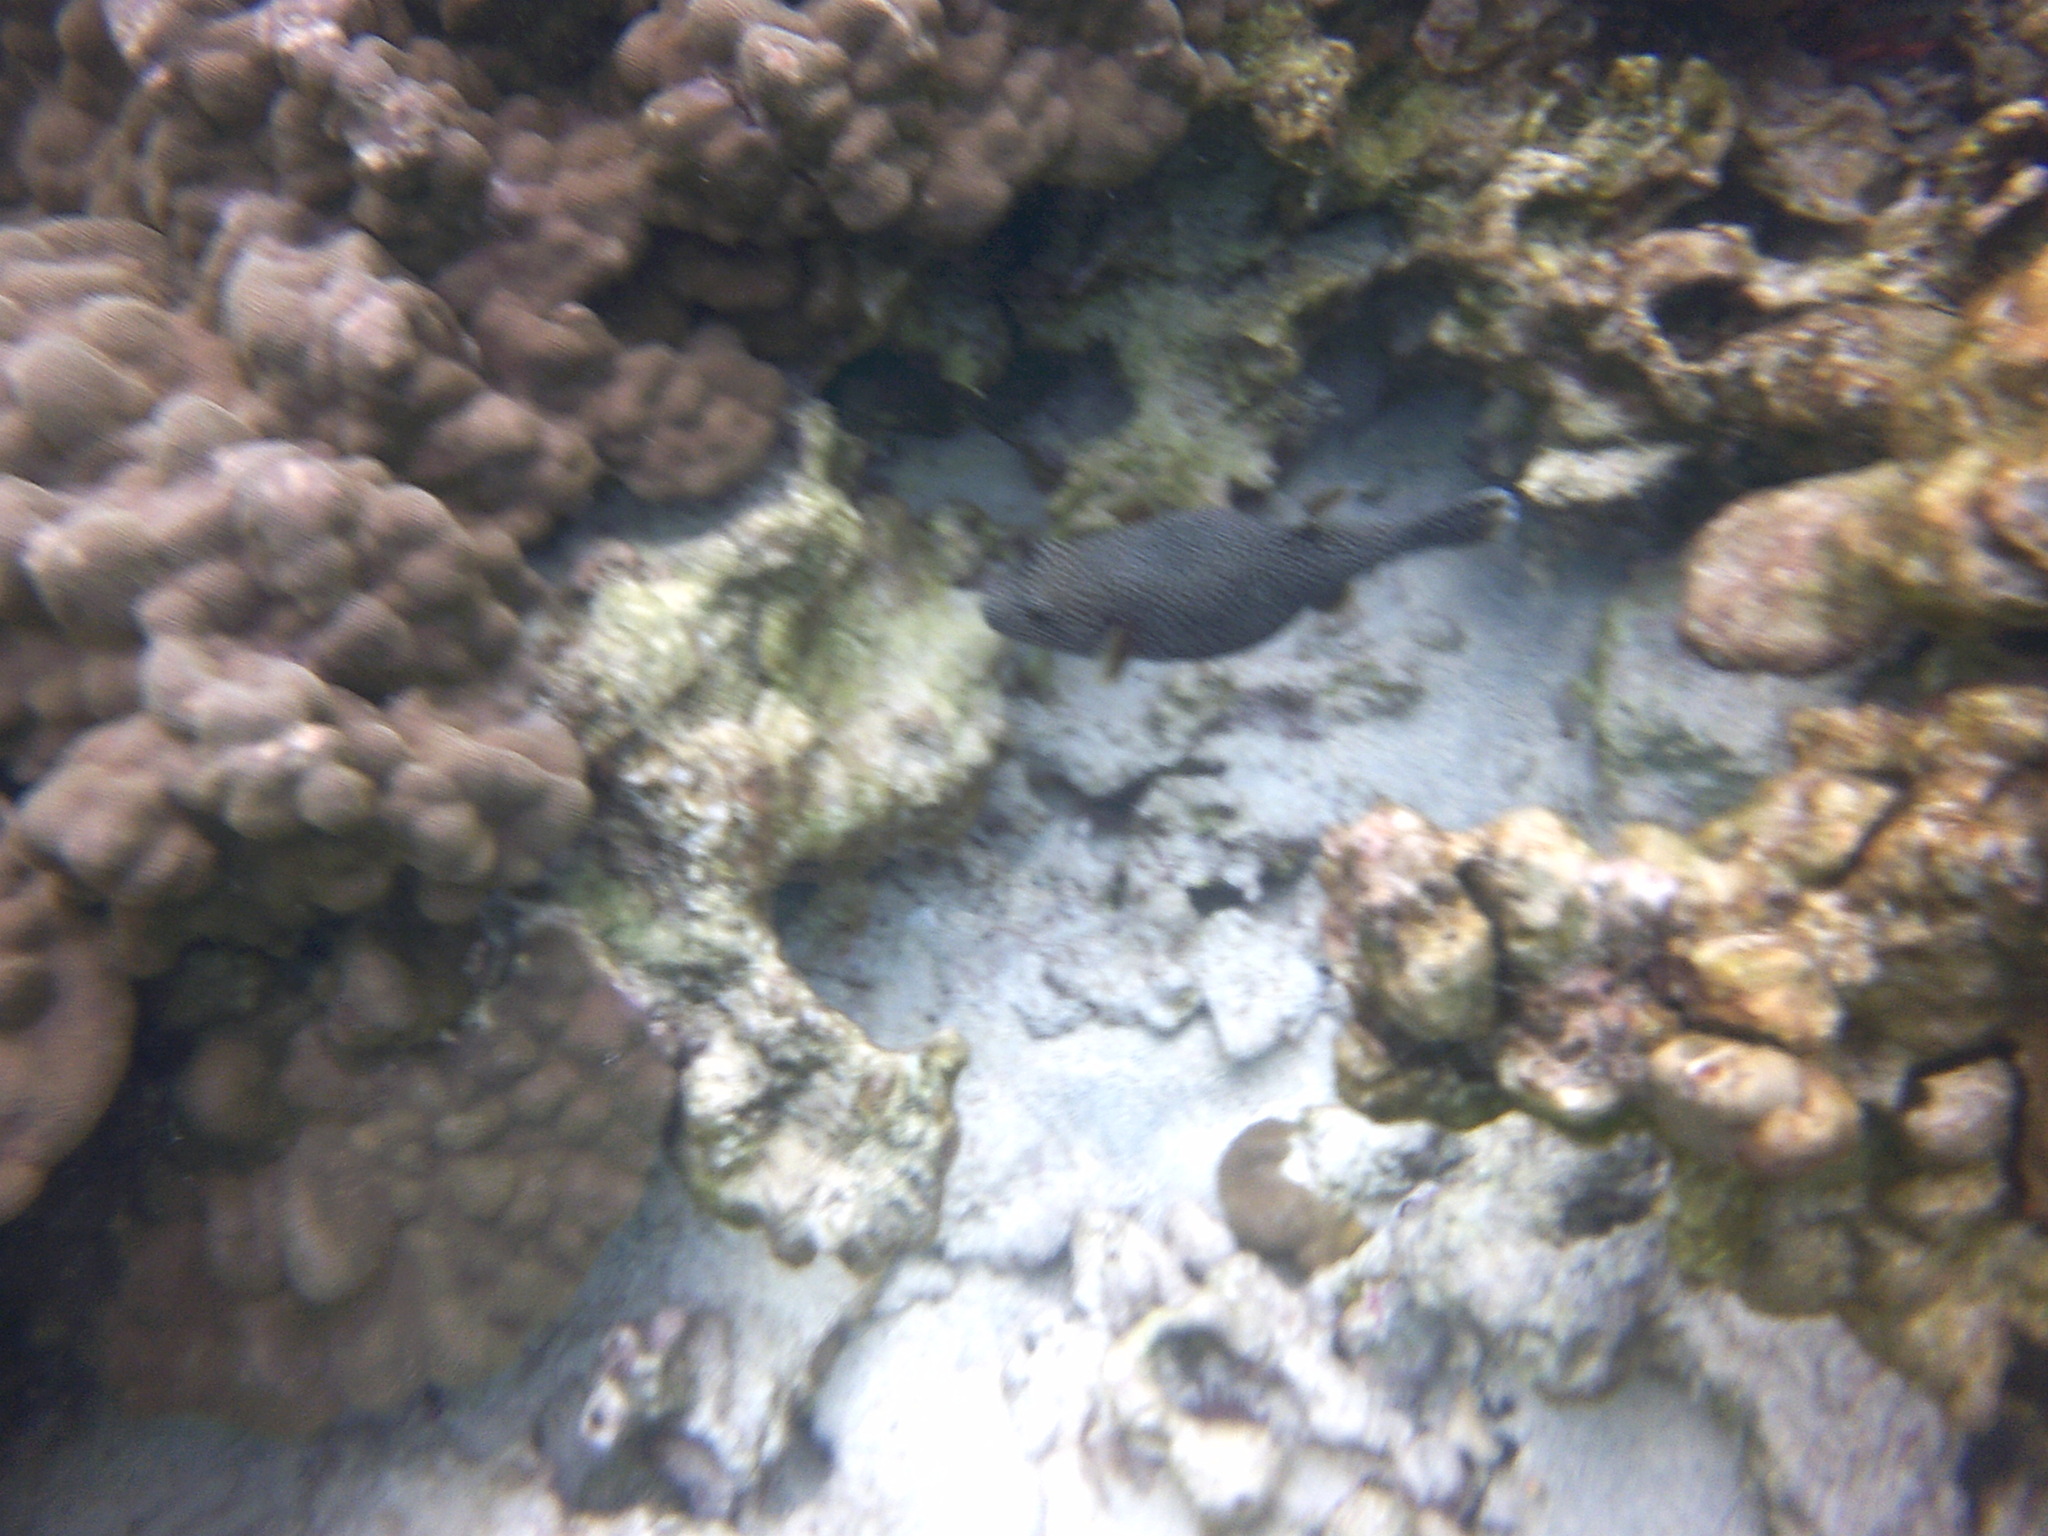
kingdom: Animalia
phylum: Chordata
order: Tetraodontiformes
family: Tetraodontidae
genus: Arothron
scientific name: Arothron meleagris
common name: Guinea-fowl pufferfish
